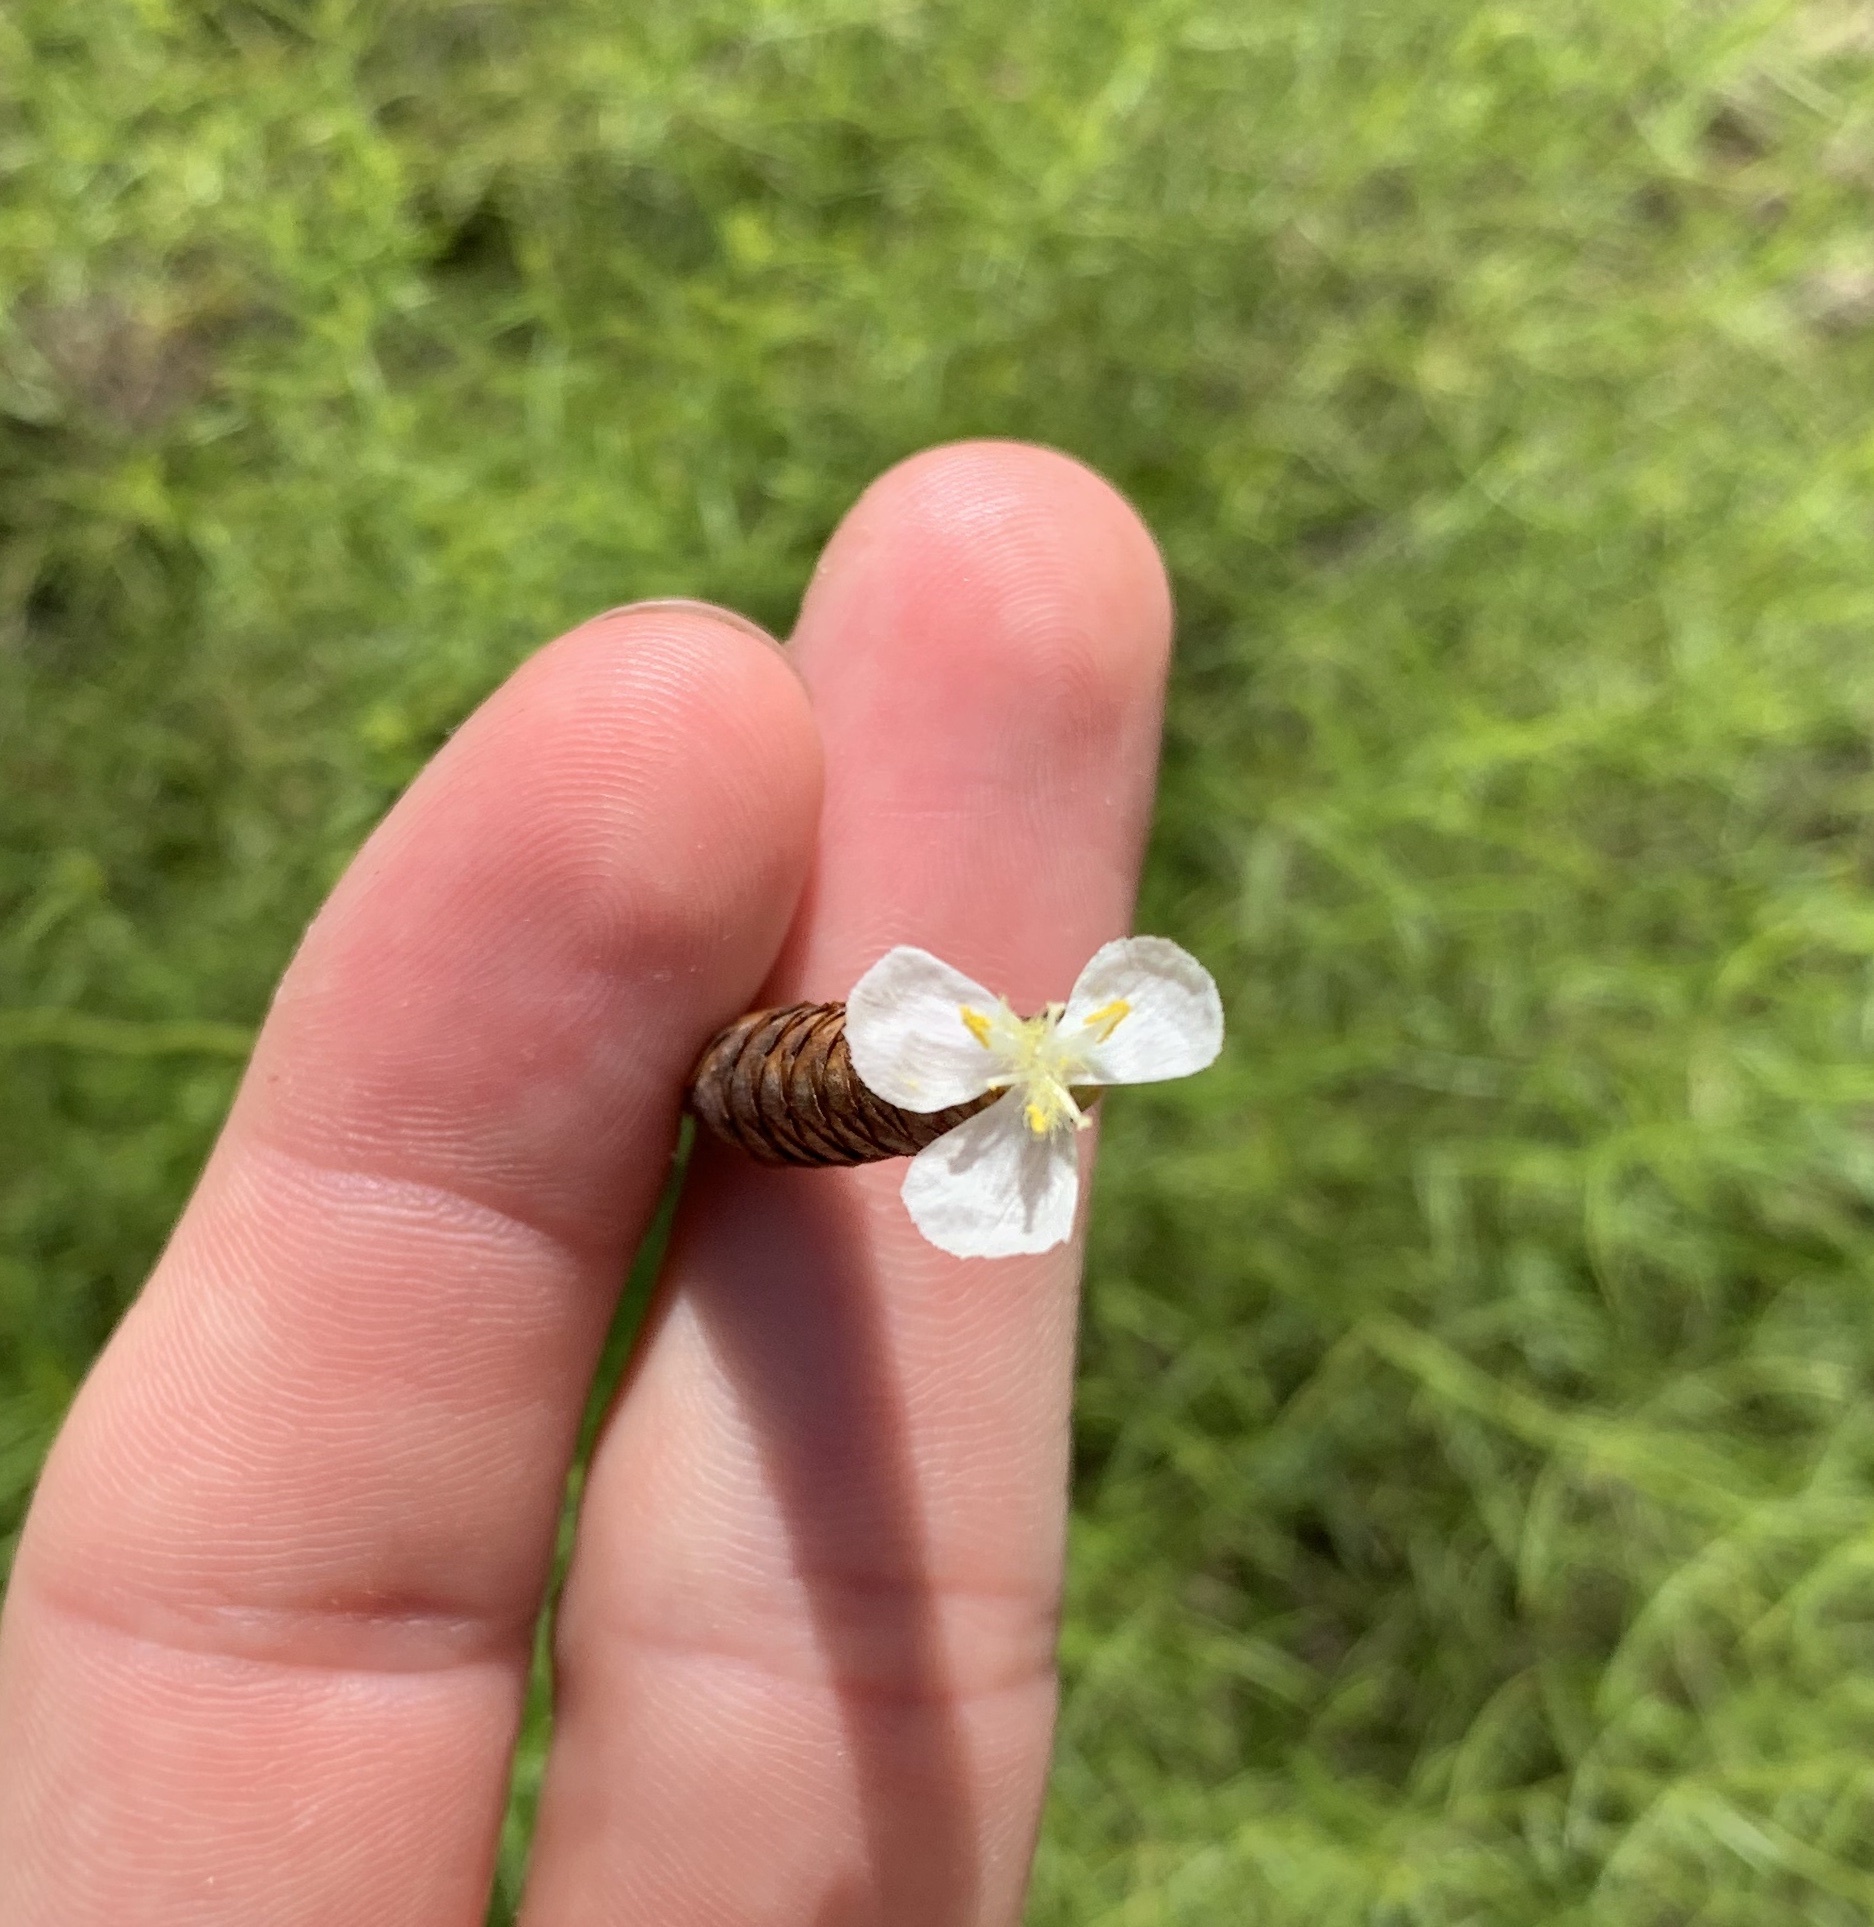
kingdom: Plantae
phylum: Tracheophyta
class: Liliopsida
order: Poales
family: Xyridaceae
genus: Xyris
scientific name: Xyris caroliniana
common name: Carolina yellow-eyed-grass
